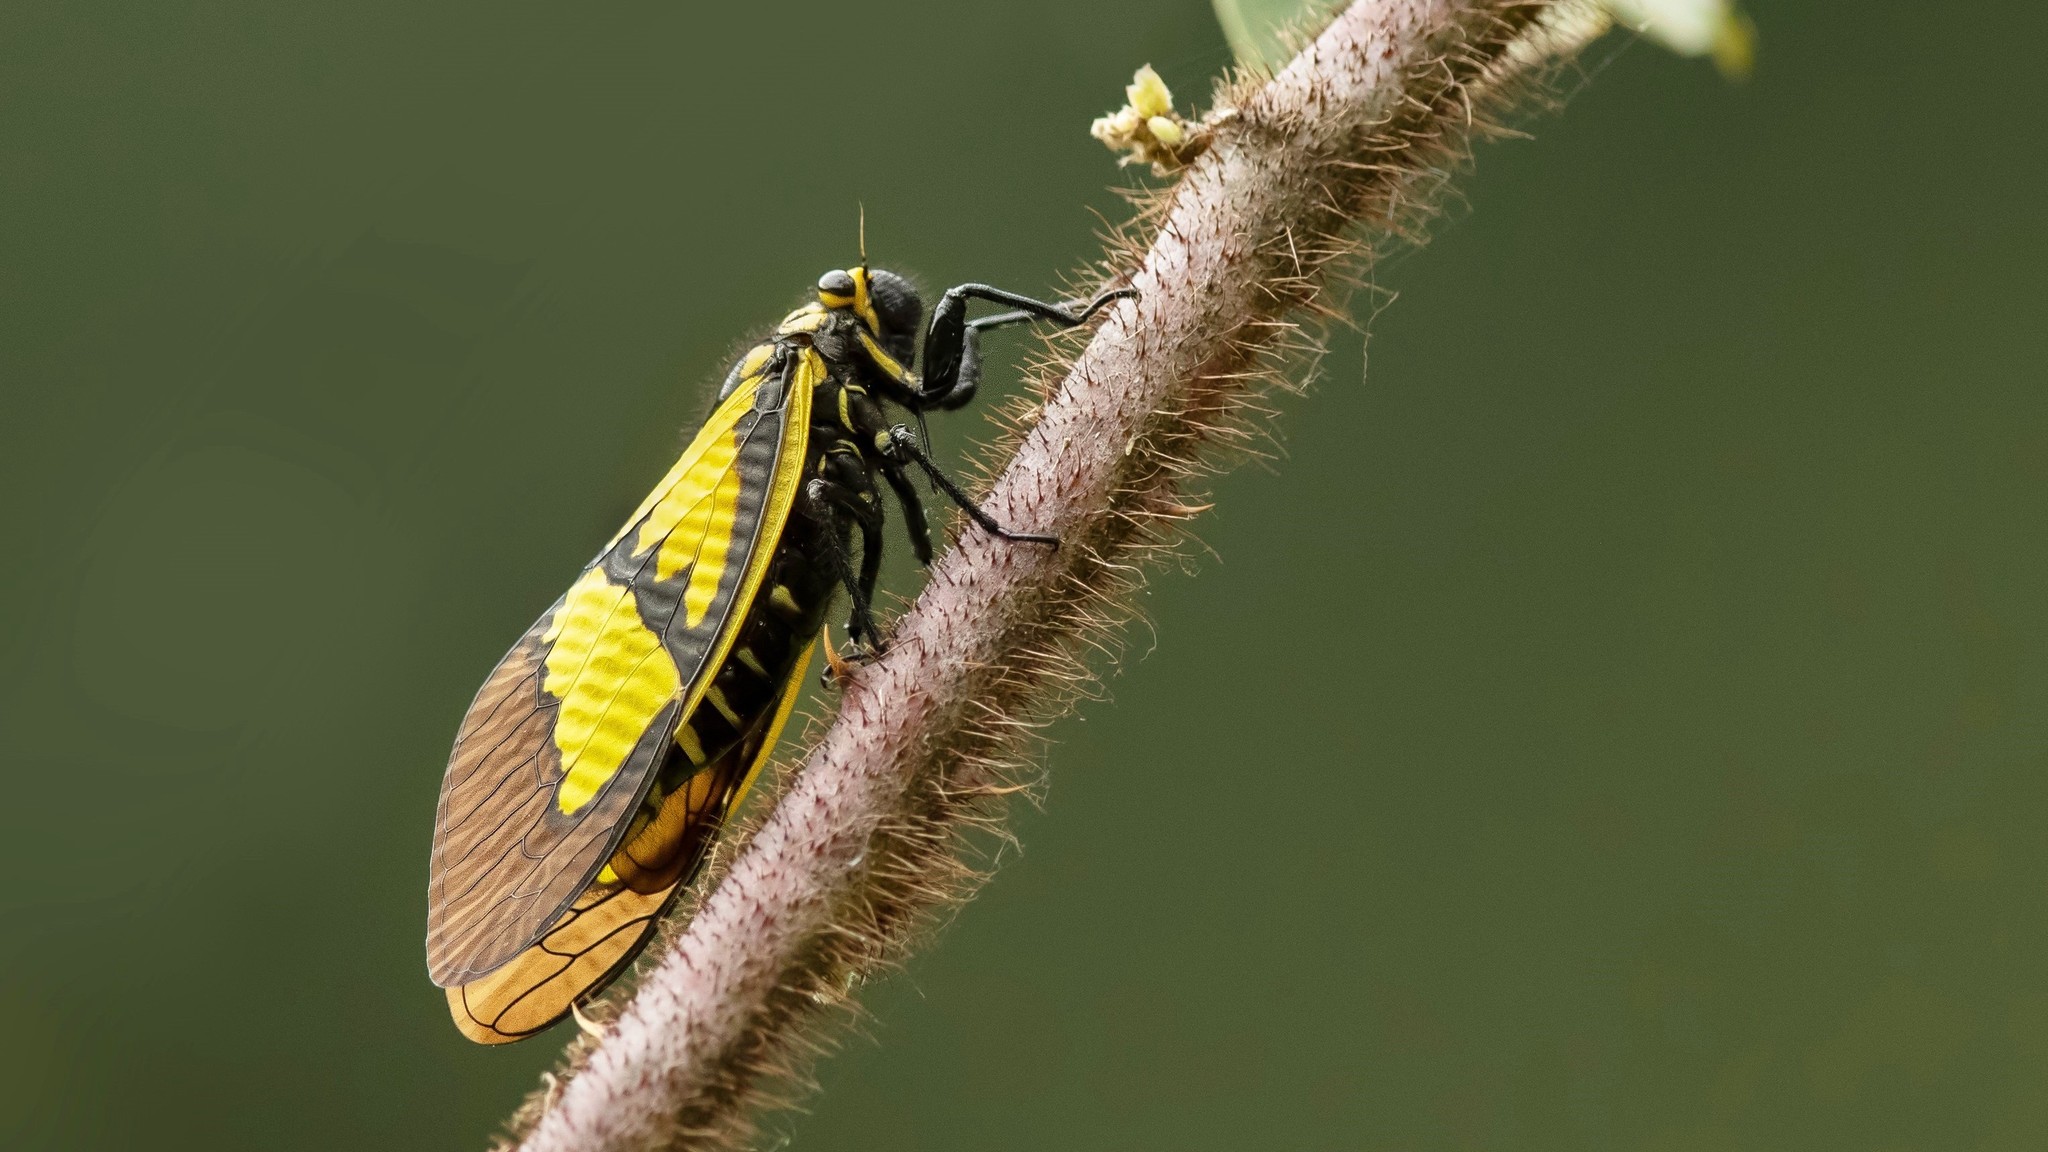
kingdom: Animalia
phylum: Arthropoda
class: Insecta
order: Hemiptera
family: Cicadidae
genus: Sulphogaeana
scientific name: Sulphogaeana sulphurea
